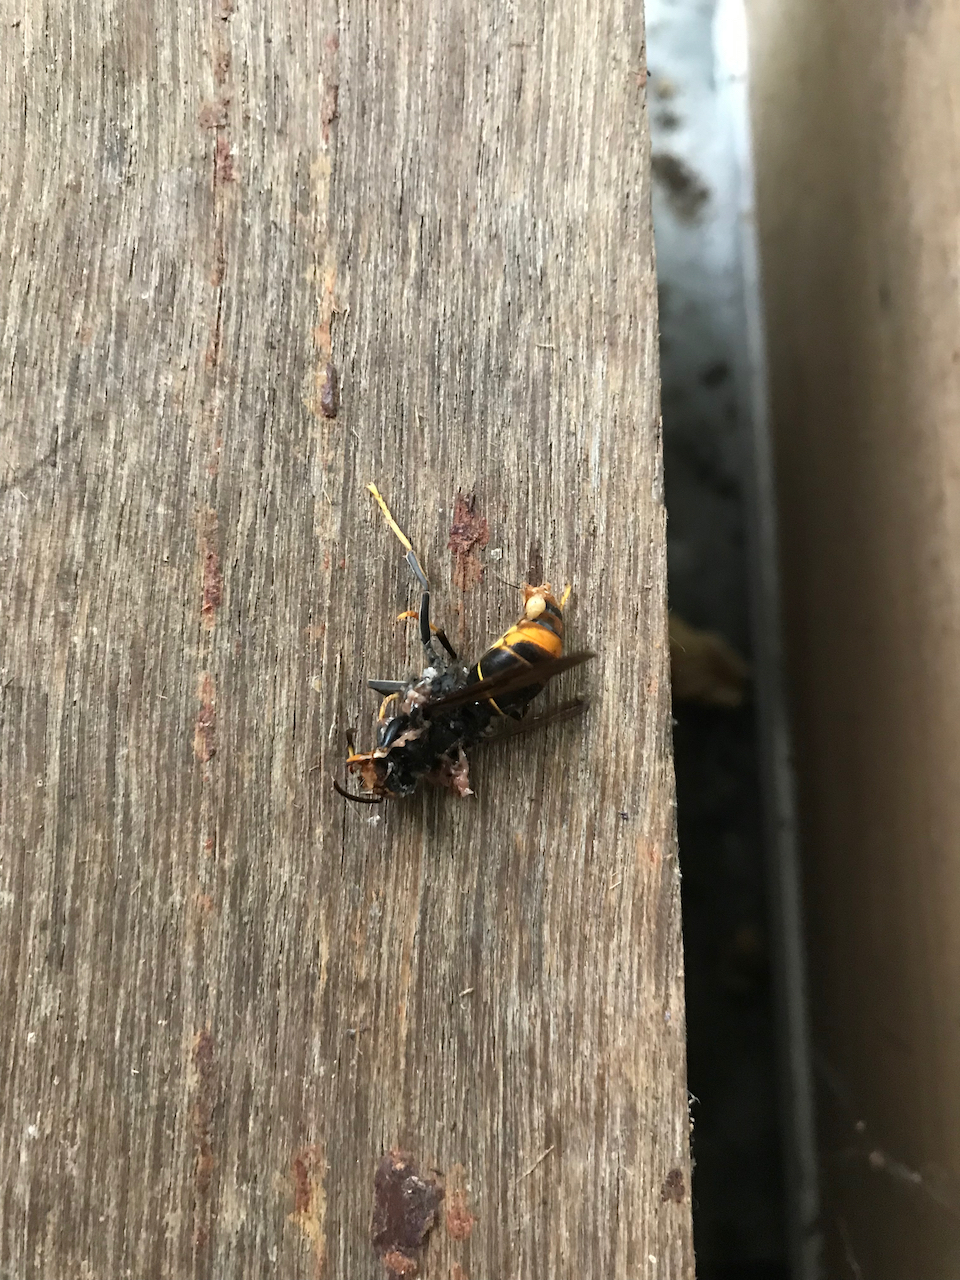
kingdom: Animalia
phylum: Arthropoda
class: Insecta
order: Hymenoptera
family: Vespidae
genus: Vespa
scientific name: Vespa velutina
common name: Asian hornet
